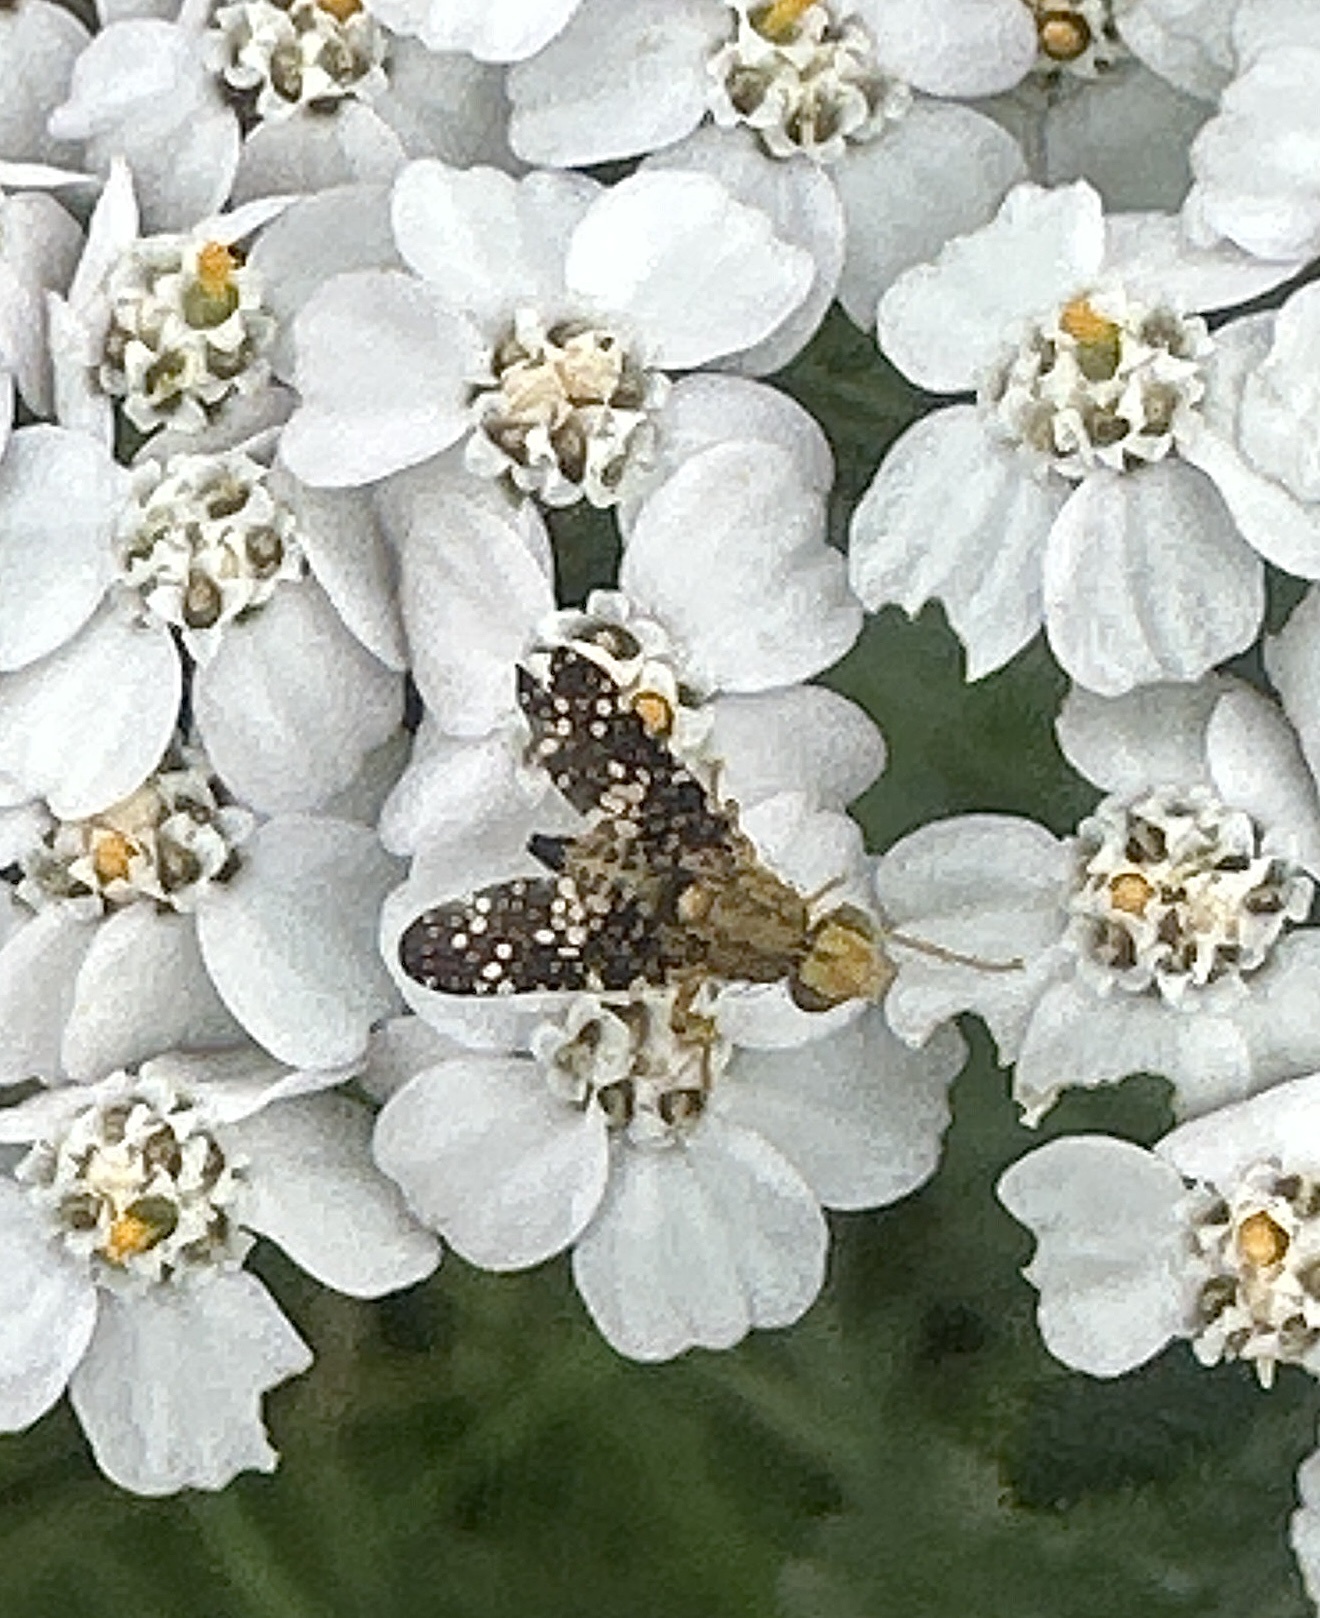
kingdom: Animalia
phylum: Arthropoda
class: Insecta
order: Diptera
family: Tephritidae
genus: Oxyna
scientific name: Oxyna flavipennis
